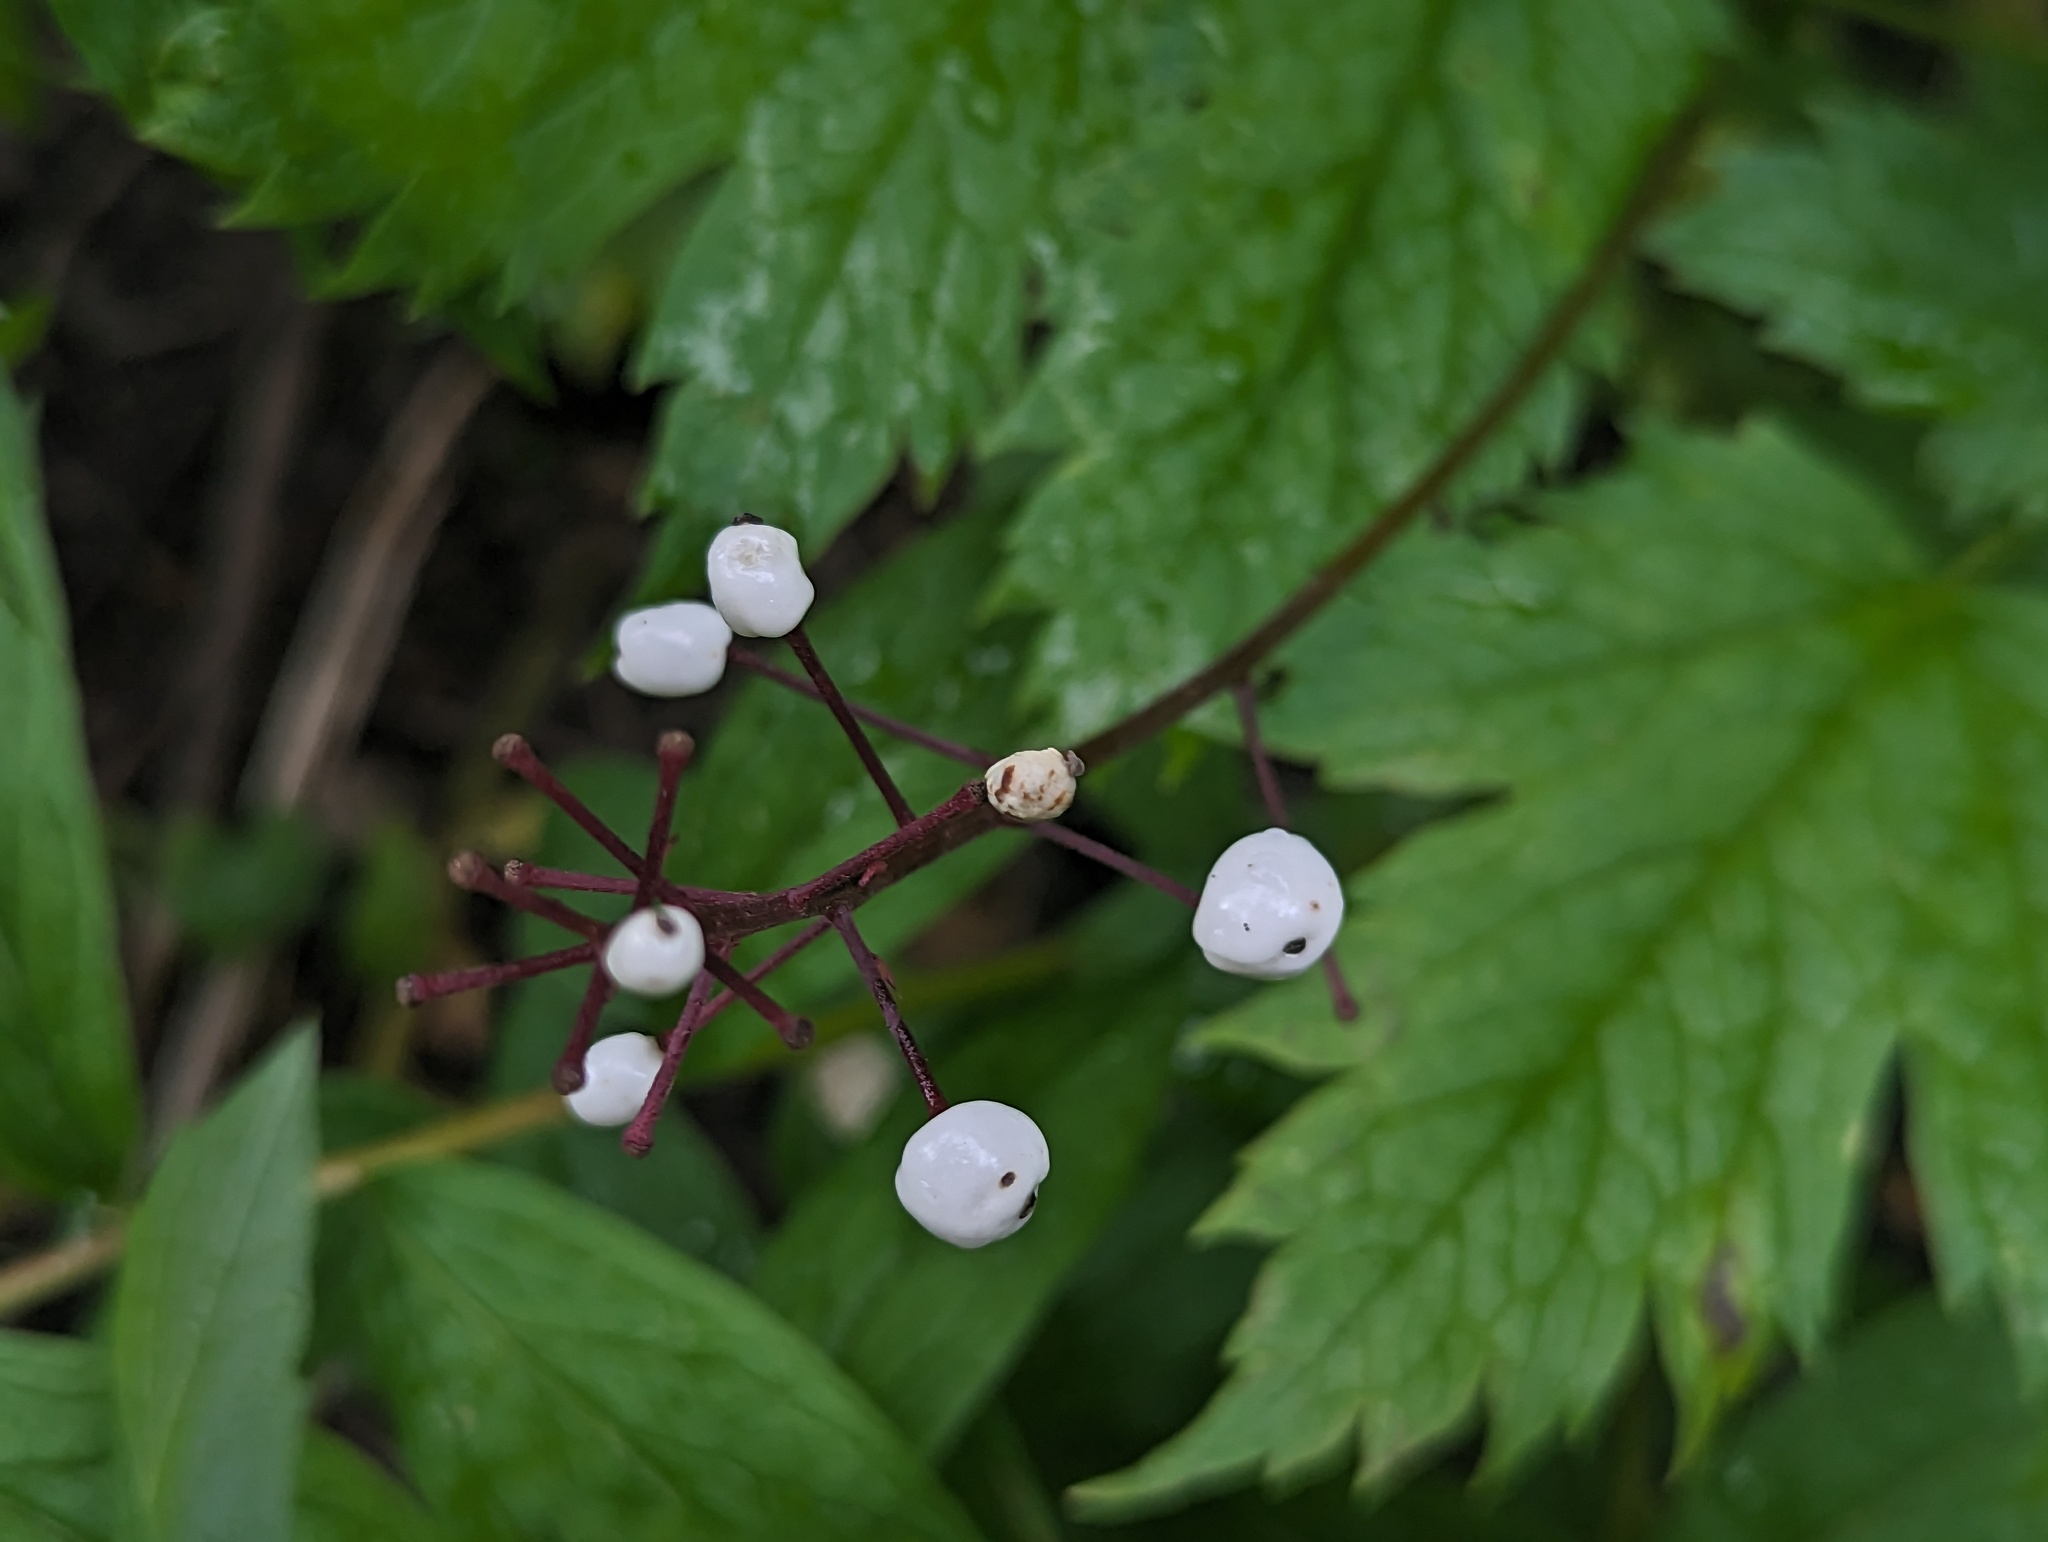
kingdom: Plantae
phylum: Tracheophyta
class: Magnoliopsida
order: Ranunculales
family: Ranunculaceae
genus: Actaea
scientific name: Actaea rubra
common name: Red baneberry
